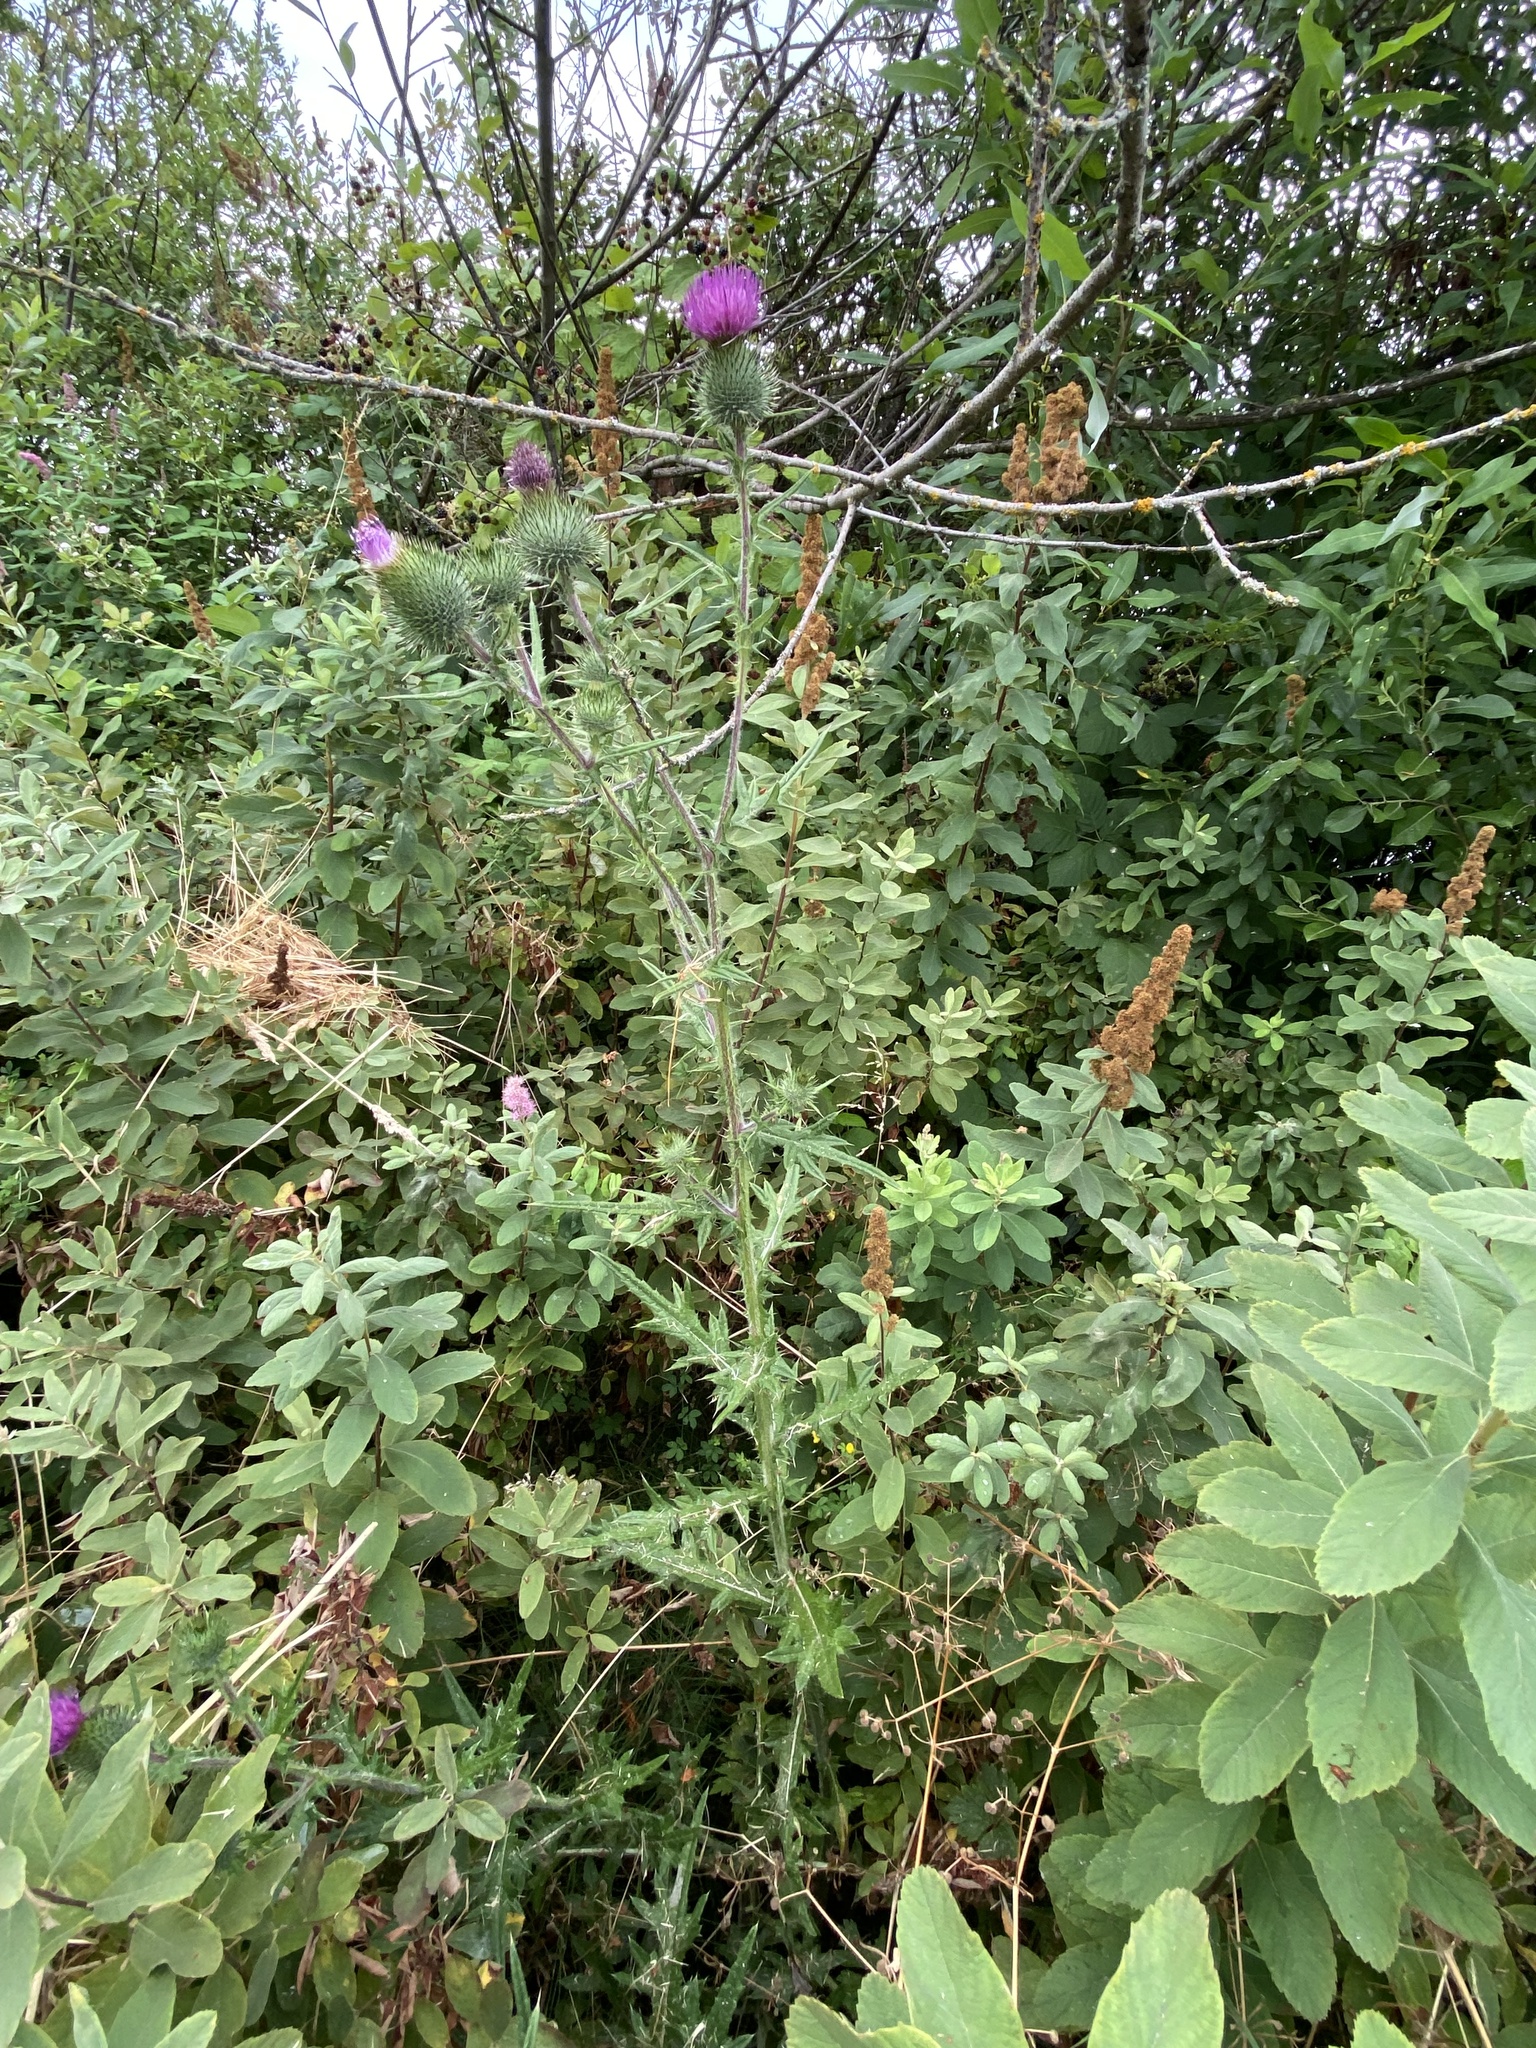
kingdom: Plantae
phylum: Tracheophyta
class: Magnoliopsida
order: Asterales
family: Asteraceae
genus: Cirsium
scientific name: Cirsium vulgare
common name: Bull thistle
